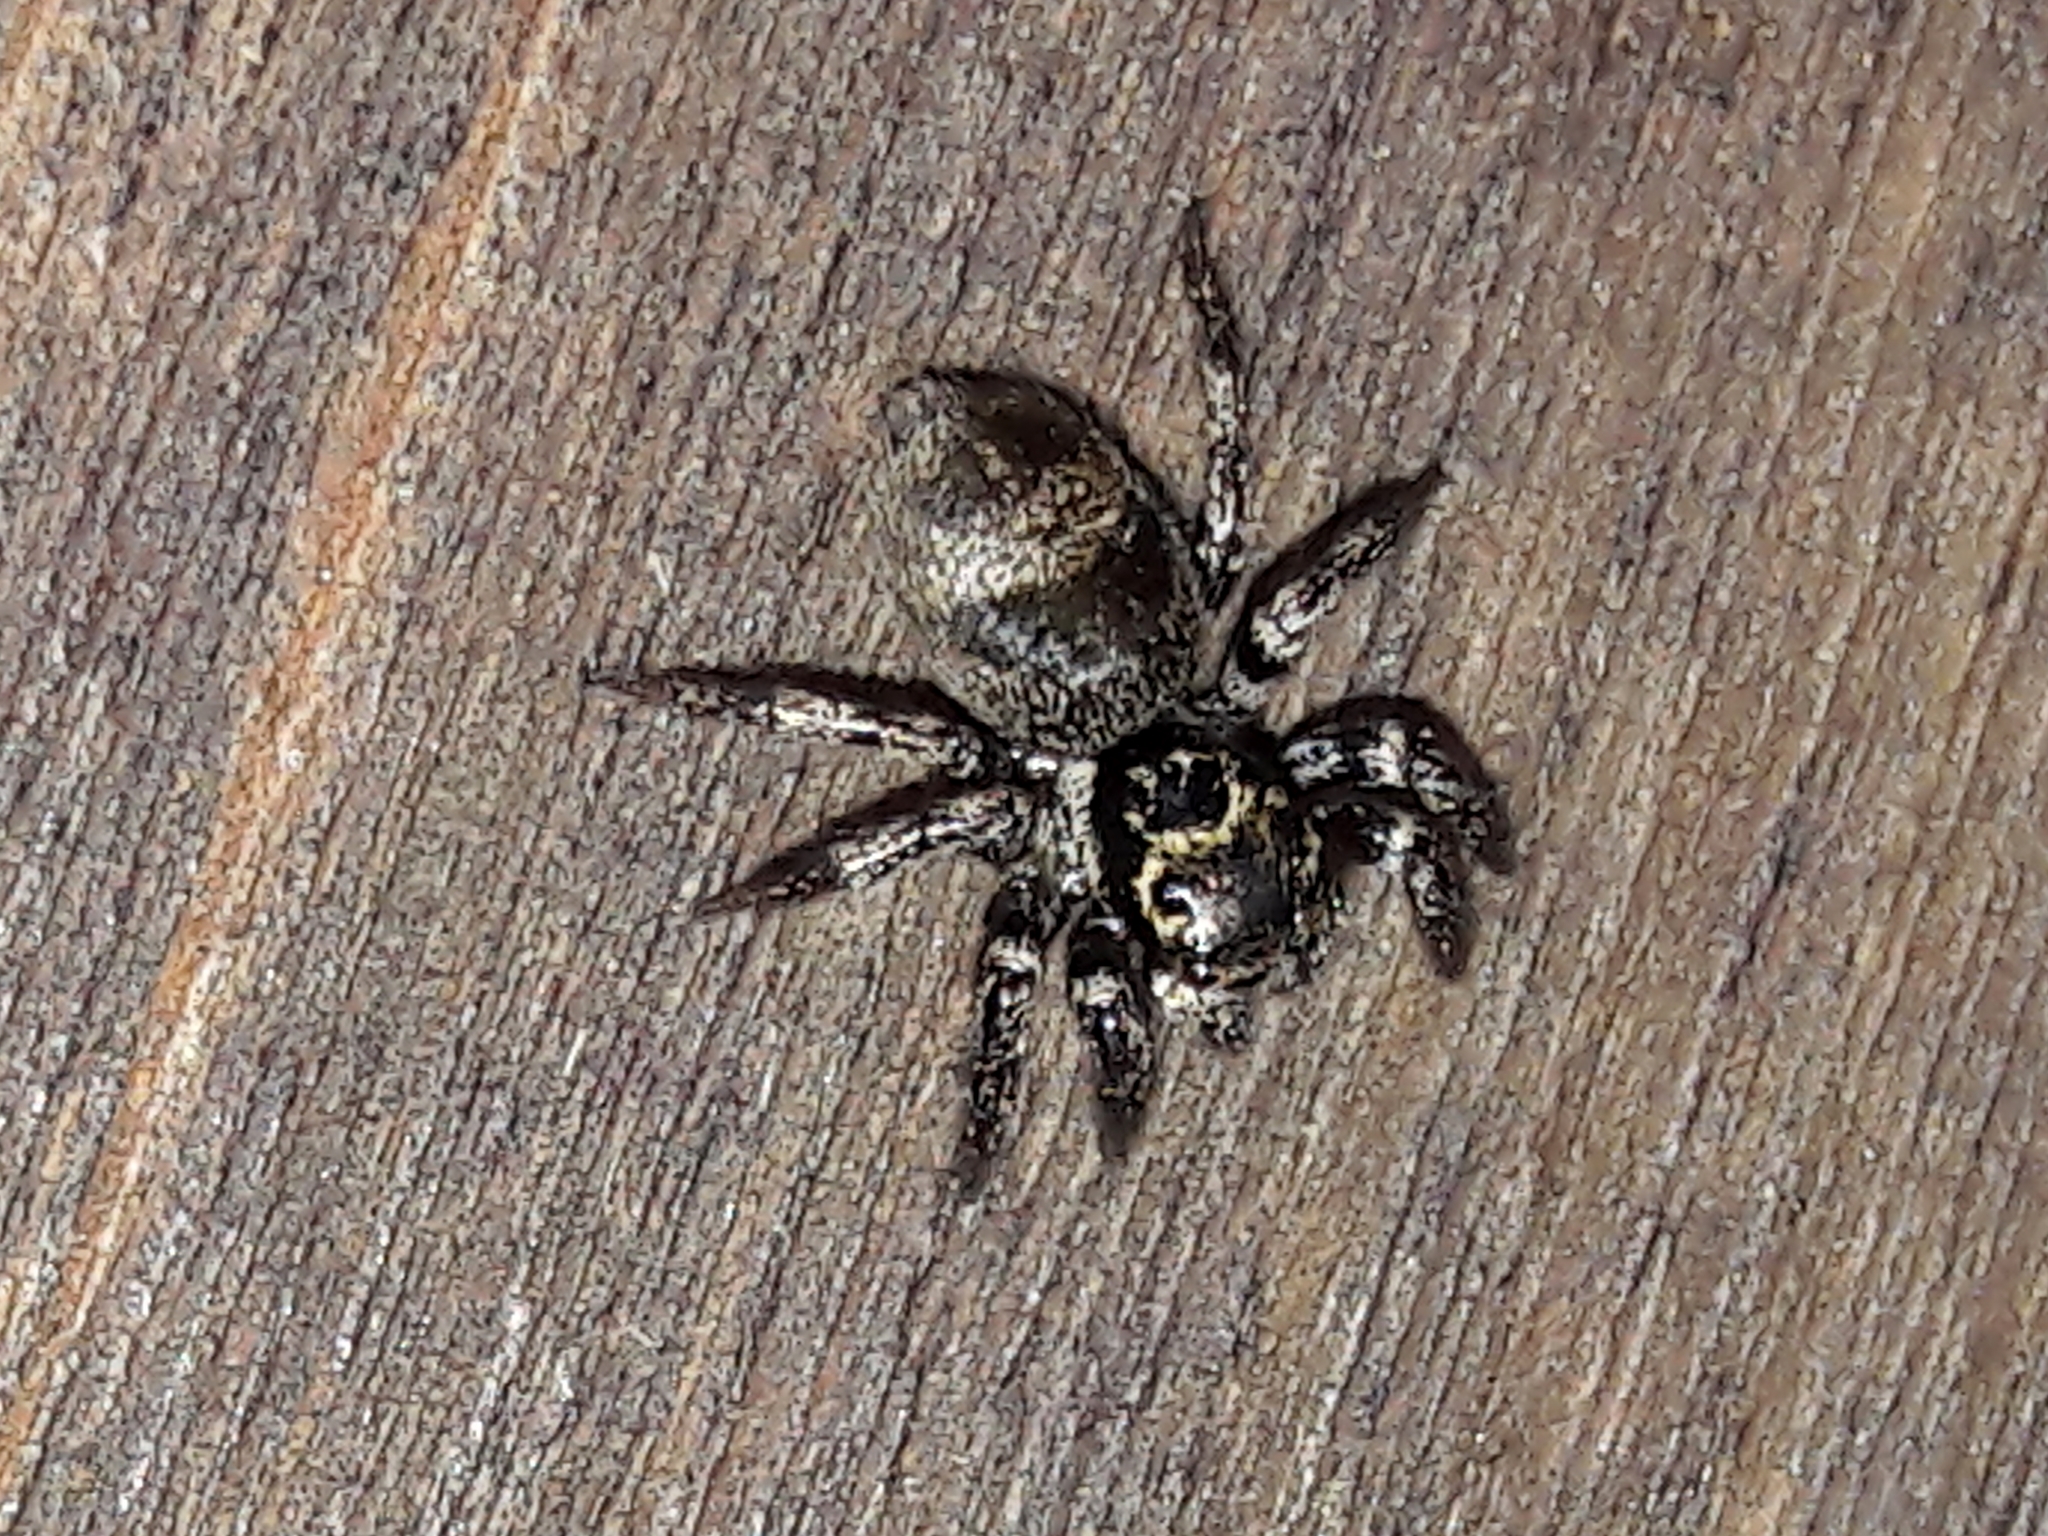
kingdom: Animalia
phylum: Arthropoda
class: Arachnida
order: Araneae
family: Salticidae
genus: Corythalia
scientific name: Corythalia conferta
